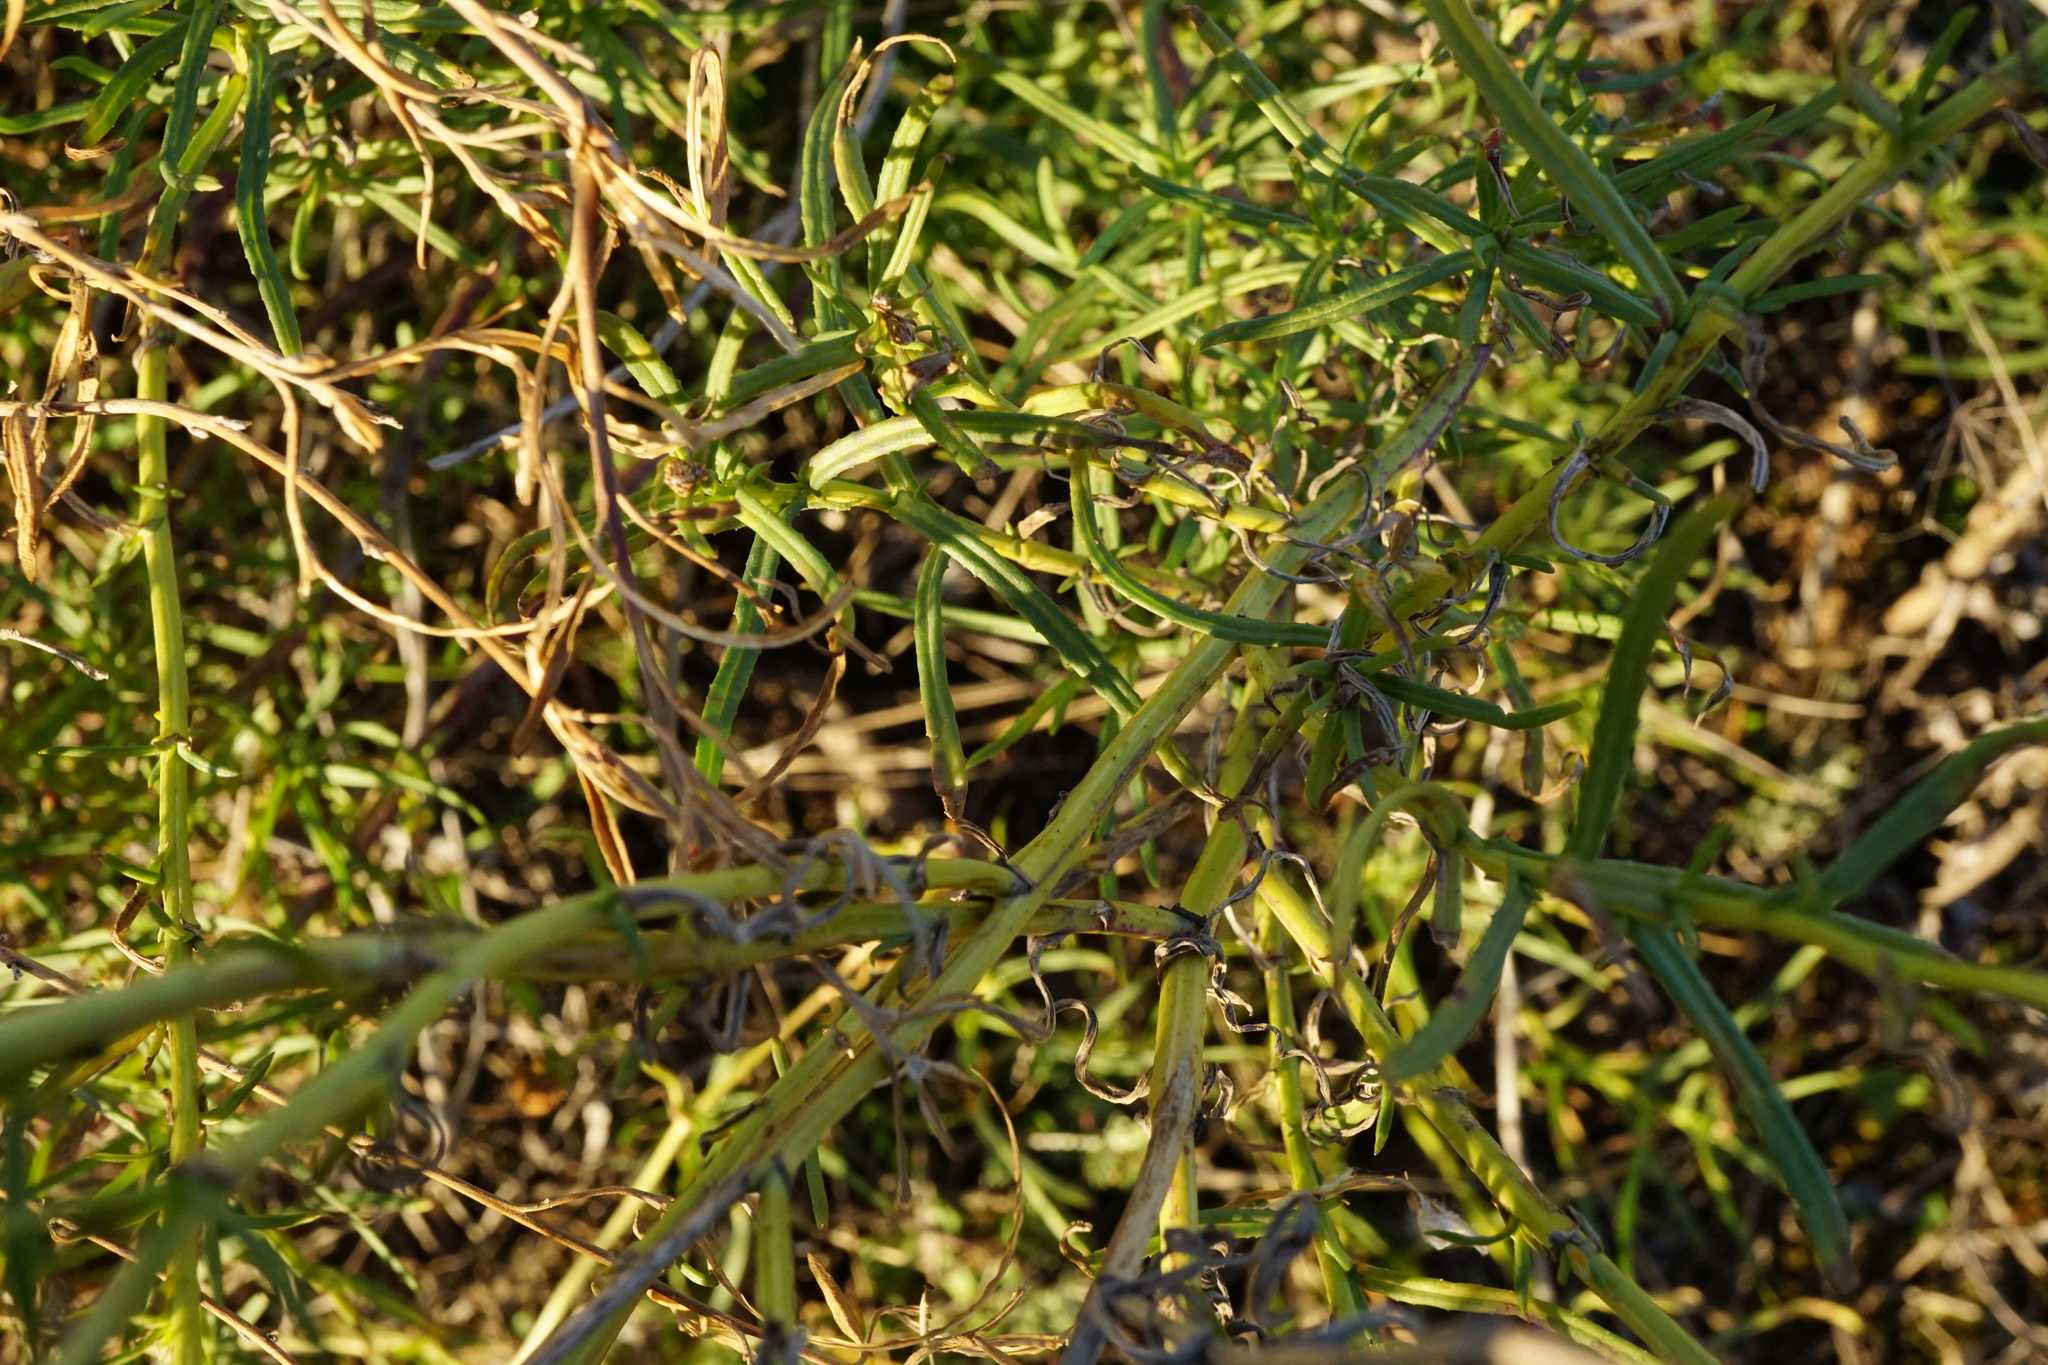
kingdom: Plantae
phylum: Tracheophyta
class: Magnoliopsida
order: Asterales
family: Asteraceae
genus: Senecio
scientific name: Senecio inaequidens
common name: Narrow-leaved ragwort
